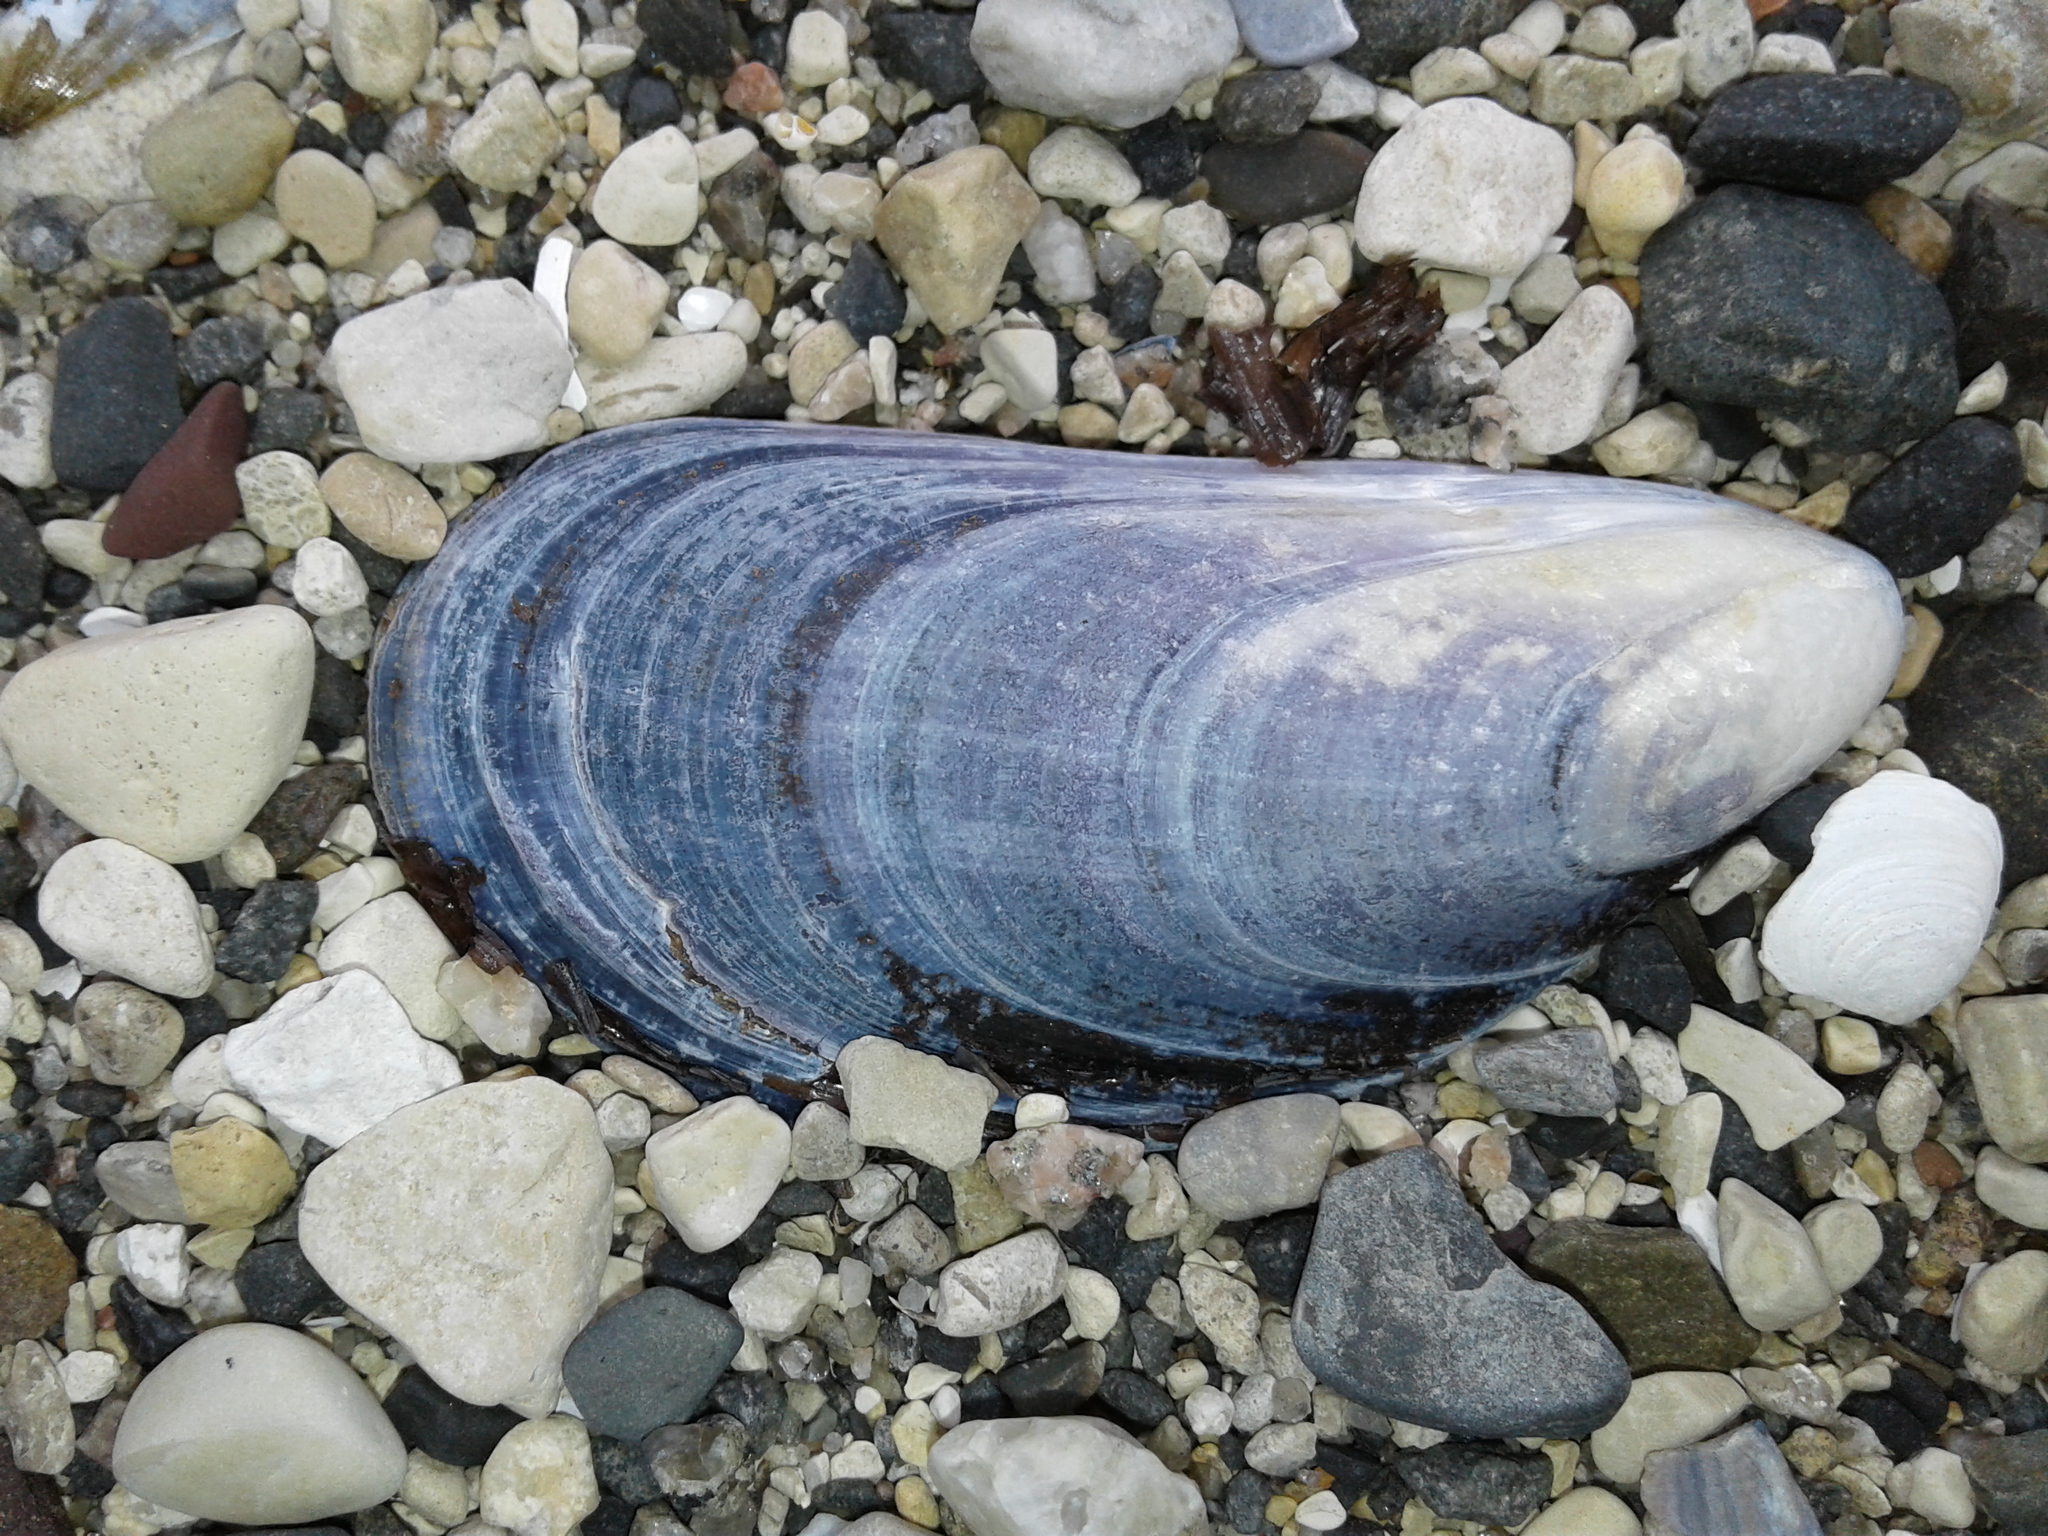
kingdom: Animalia
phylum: Mollusca
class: Bivalvia
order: Mytilida
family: Mytilidae
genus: Mytilus
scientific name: Mytilus edulis
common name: Blue mussel
